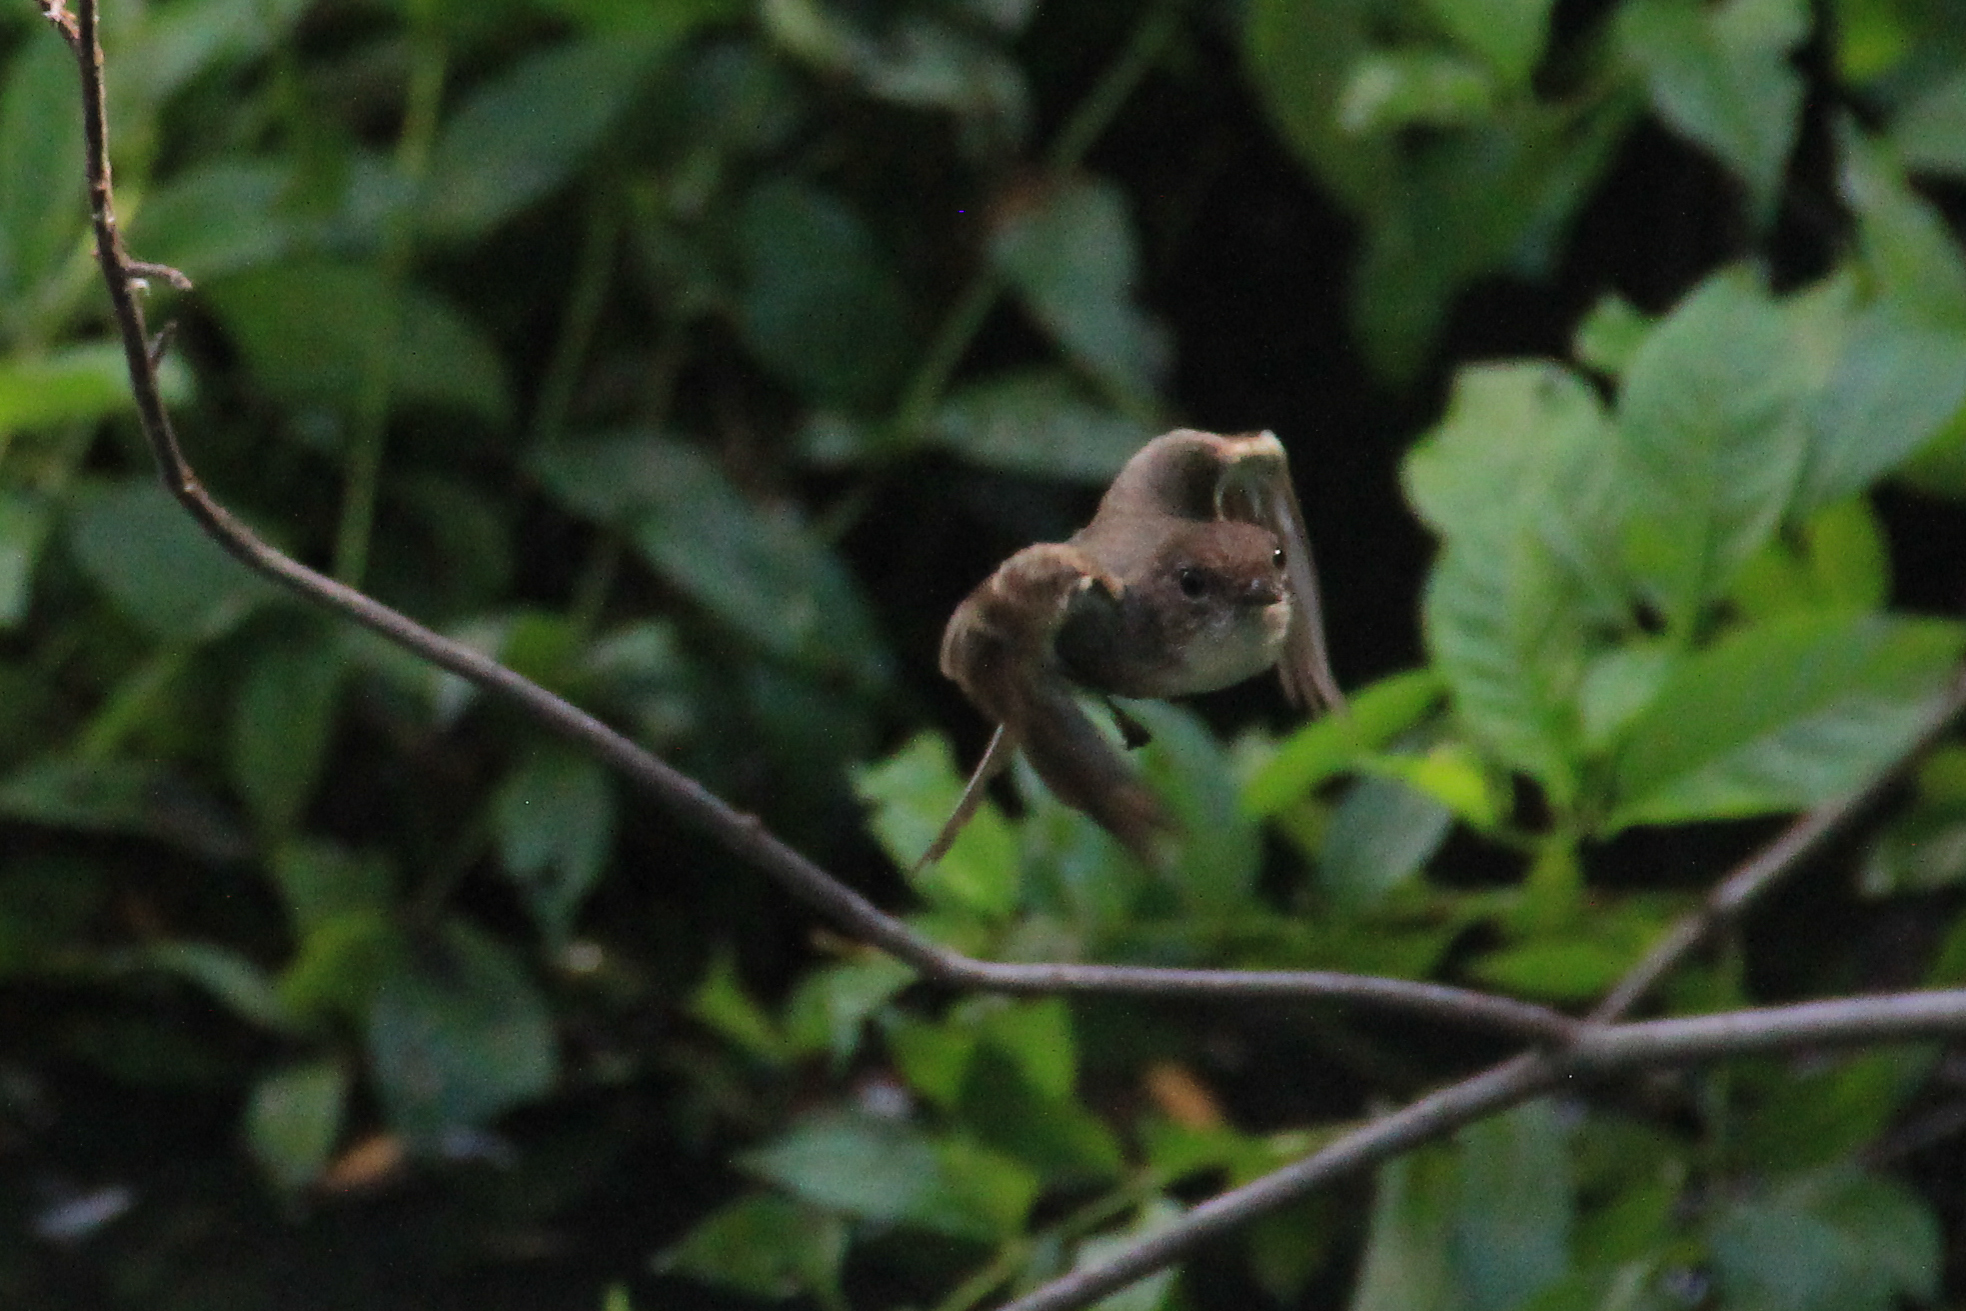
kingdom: Animalia
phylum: Chordata
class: Aves
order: Passeriformes
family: Tyrannidae
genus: Sayornis
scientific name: Sayornis phoebe
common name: Eastern phoebe
